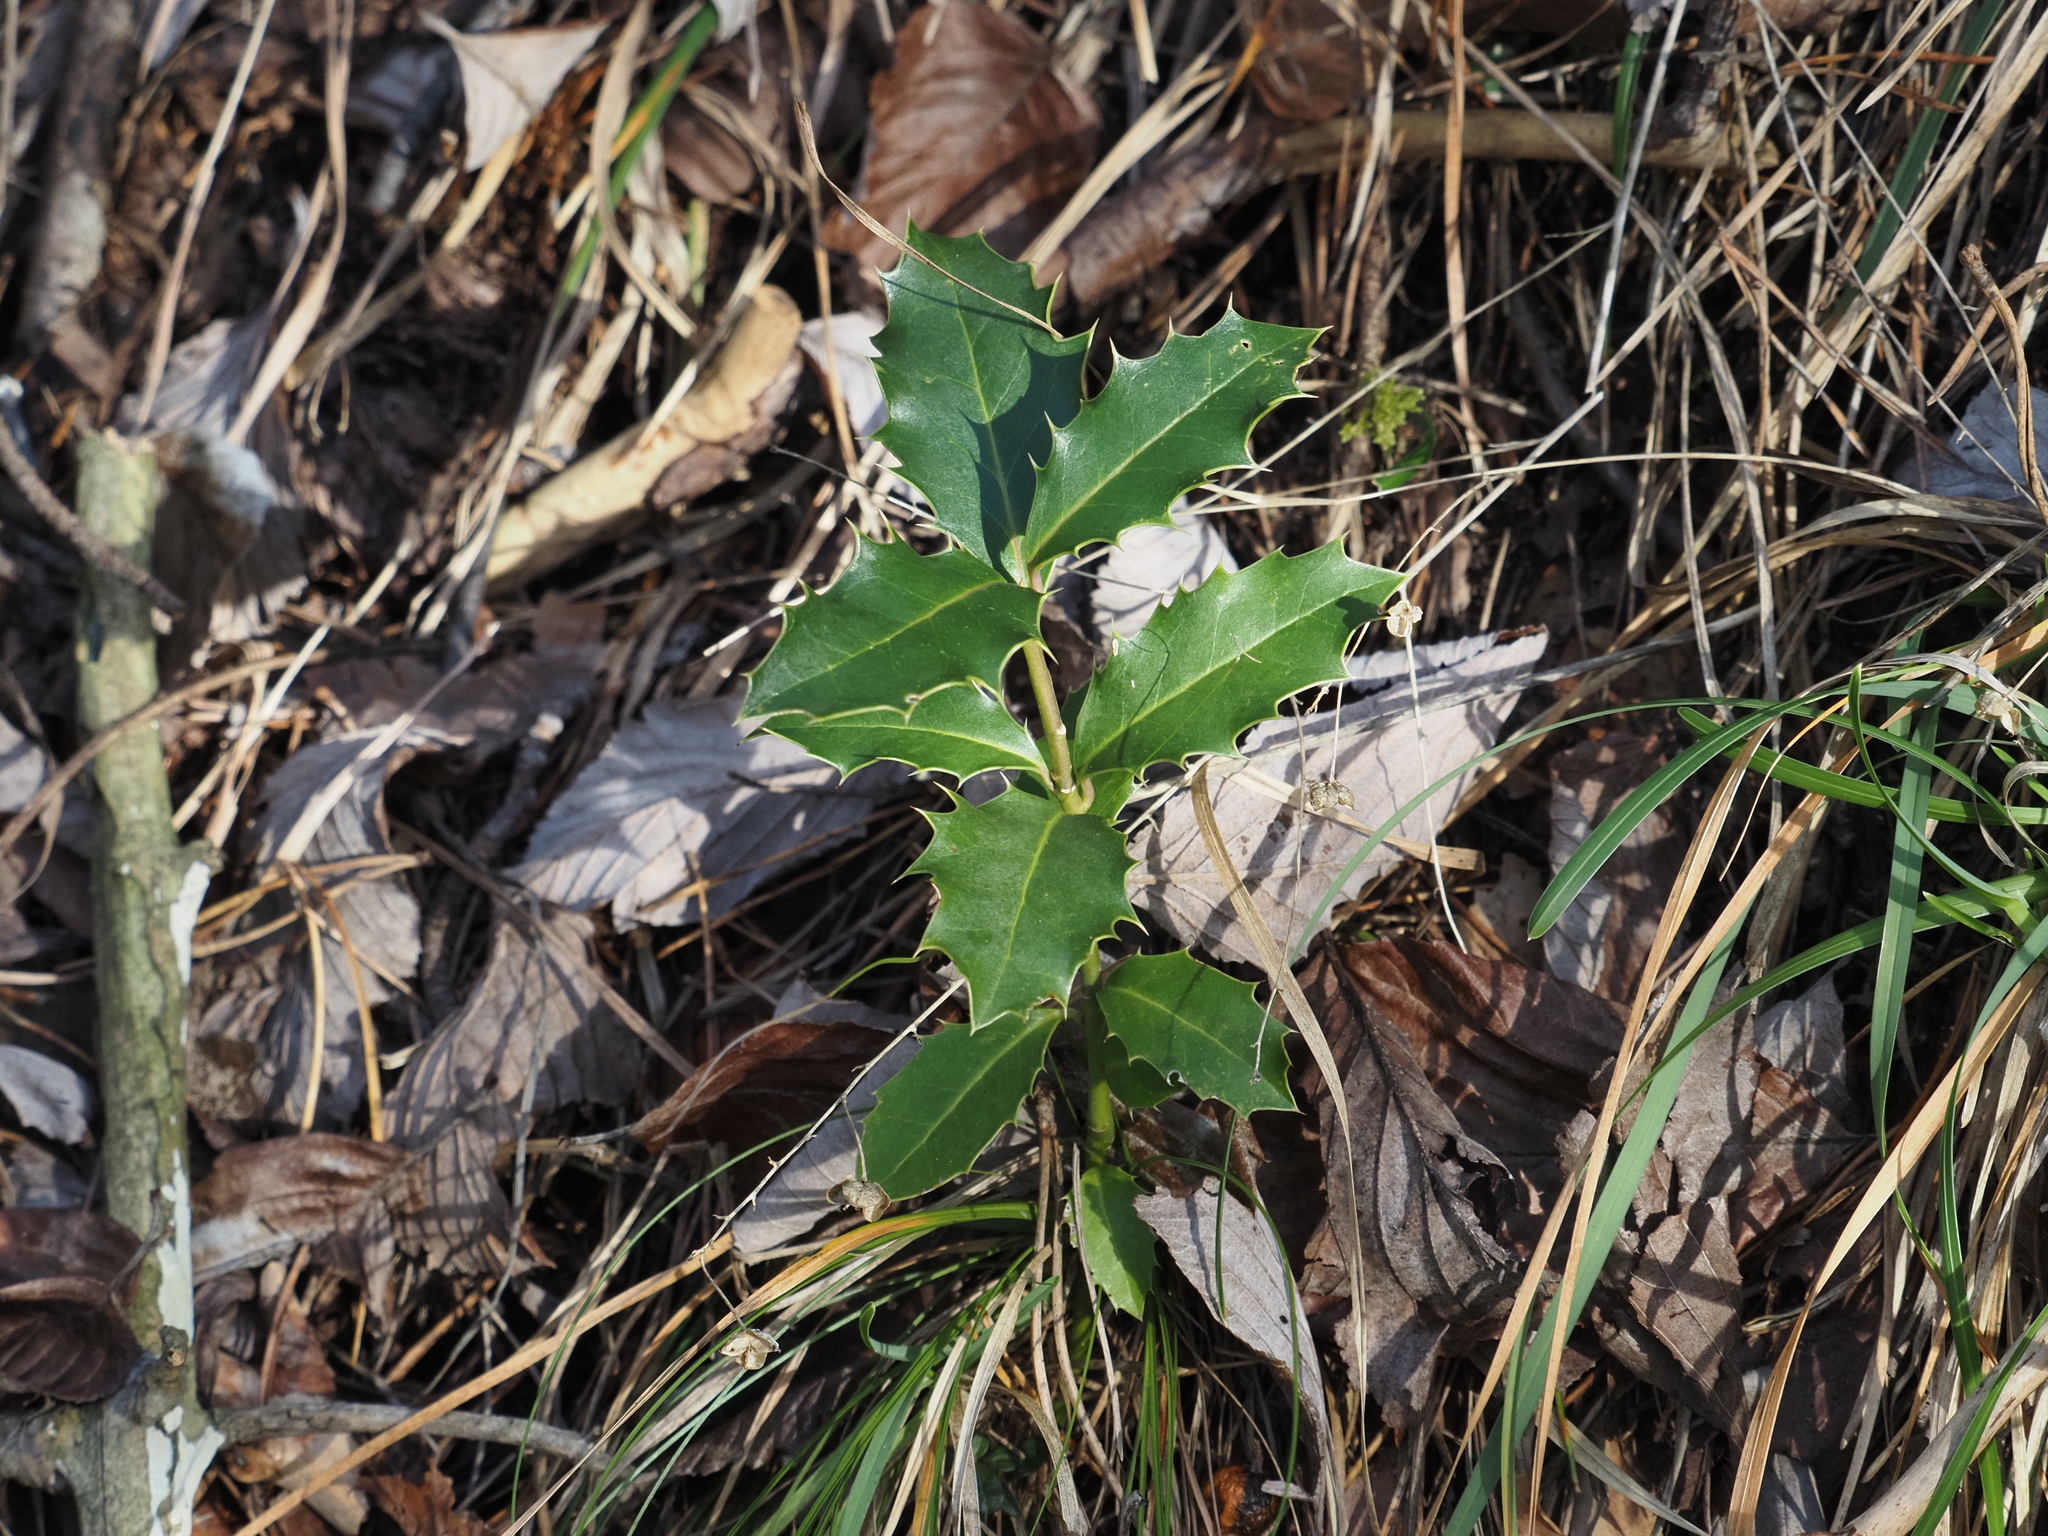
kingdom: Plantae
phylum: Tracheophyta
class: Magnoliopsida
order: Aquifoliales
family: Aquifoliaceae
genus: Ilex
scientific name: Ilex aquifolium
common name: English holly
